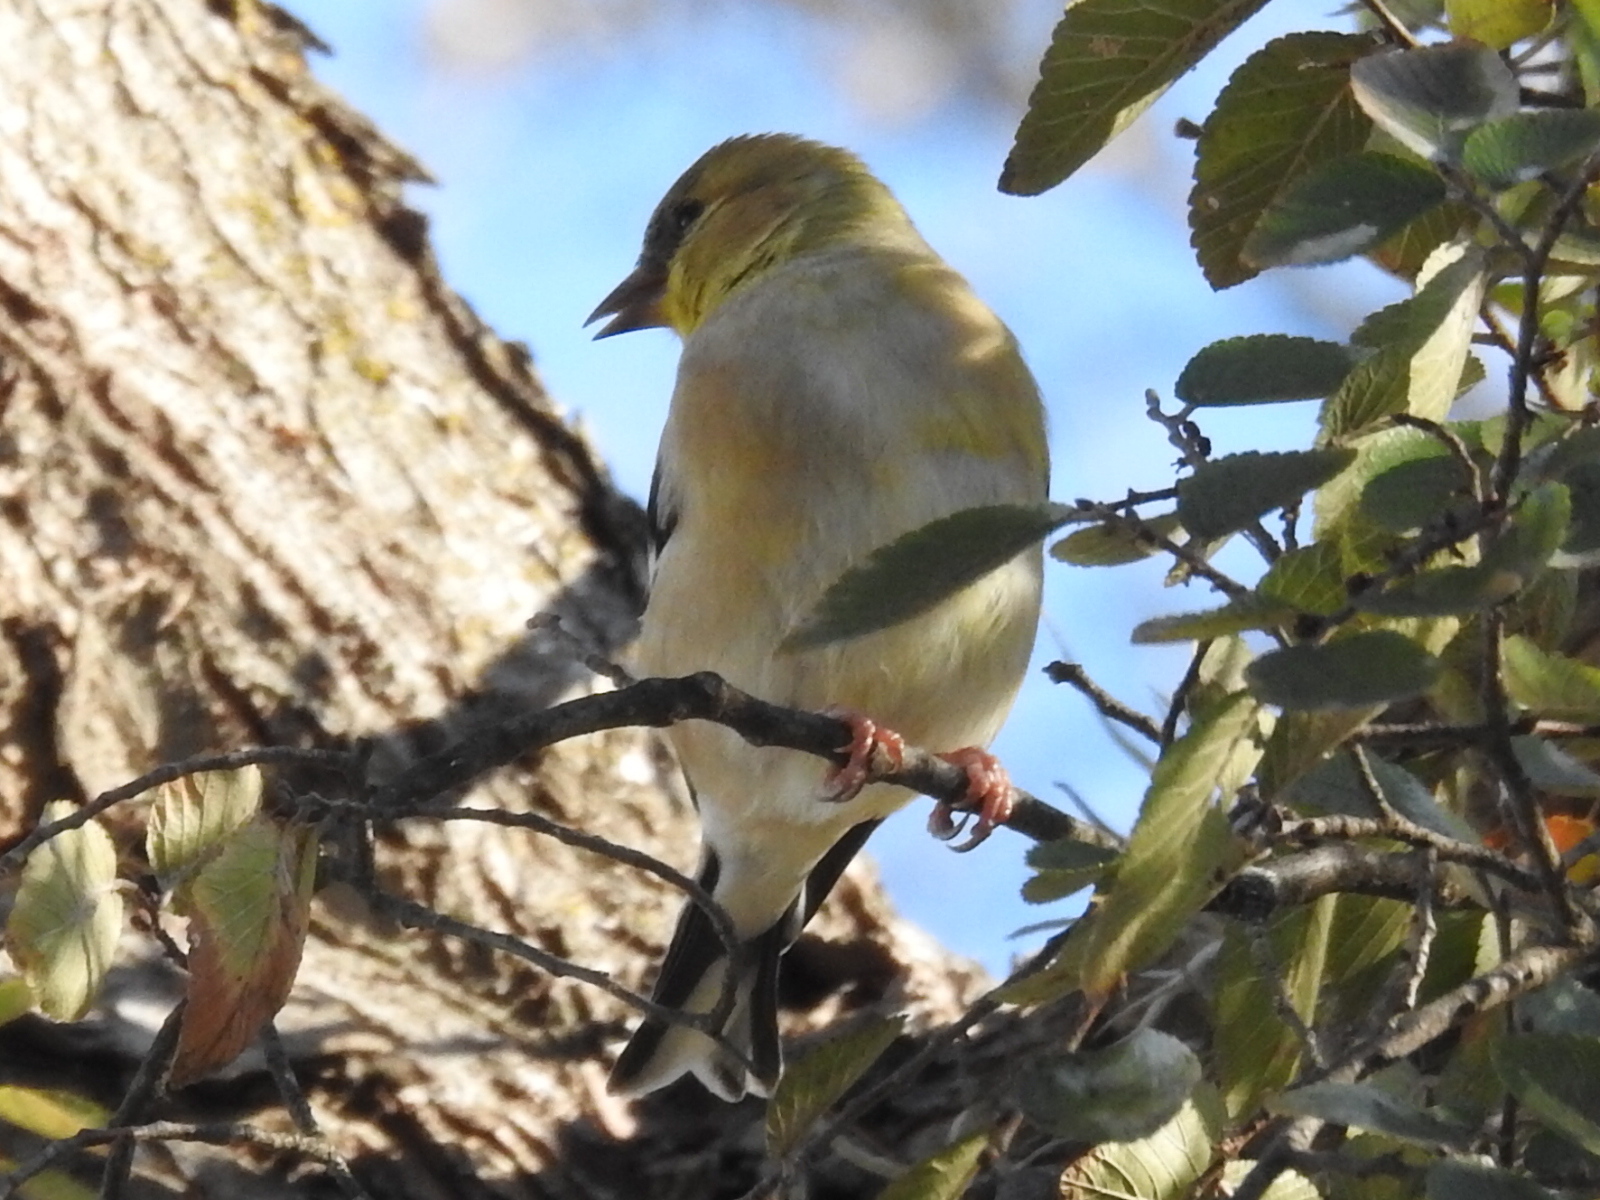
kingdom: Animalia
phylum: Chordata
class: Aves
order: Passeriformes
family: Fringillidae
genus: Spinus
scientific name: Spinus tristis
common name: American goldfinch
